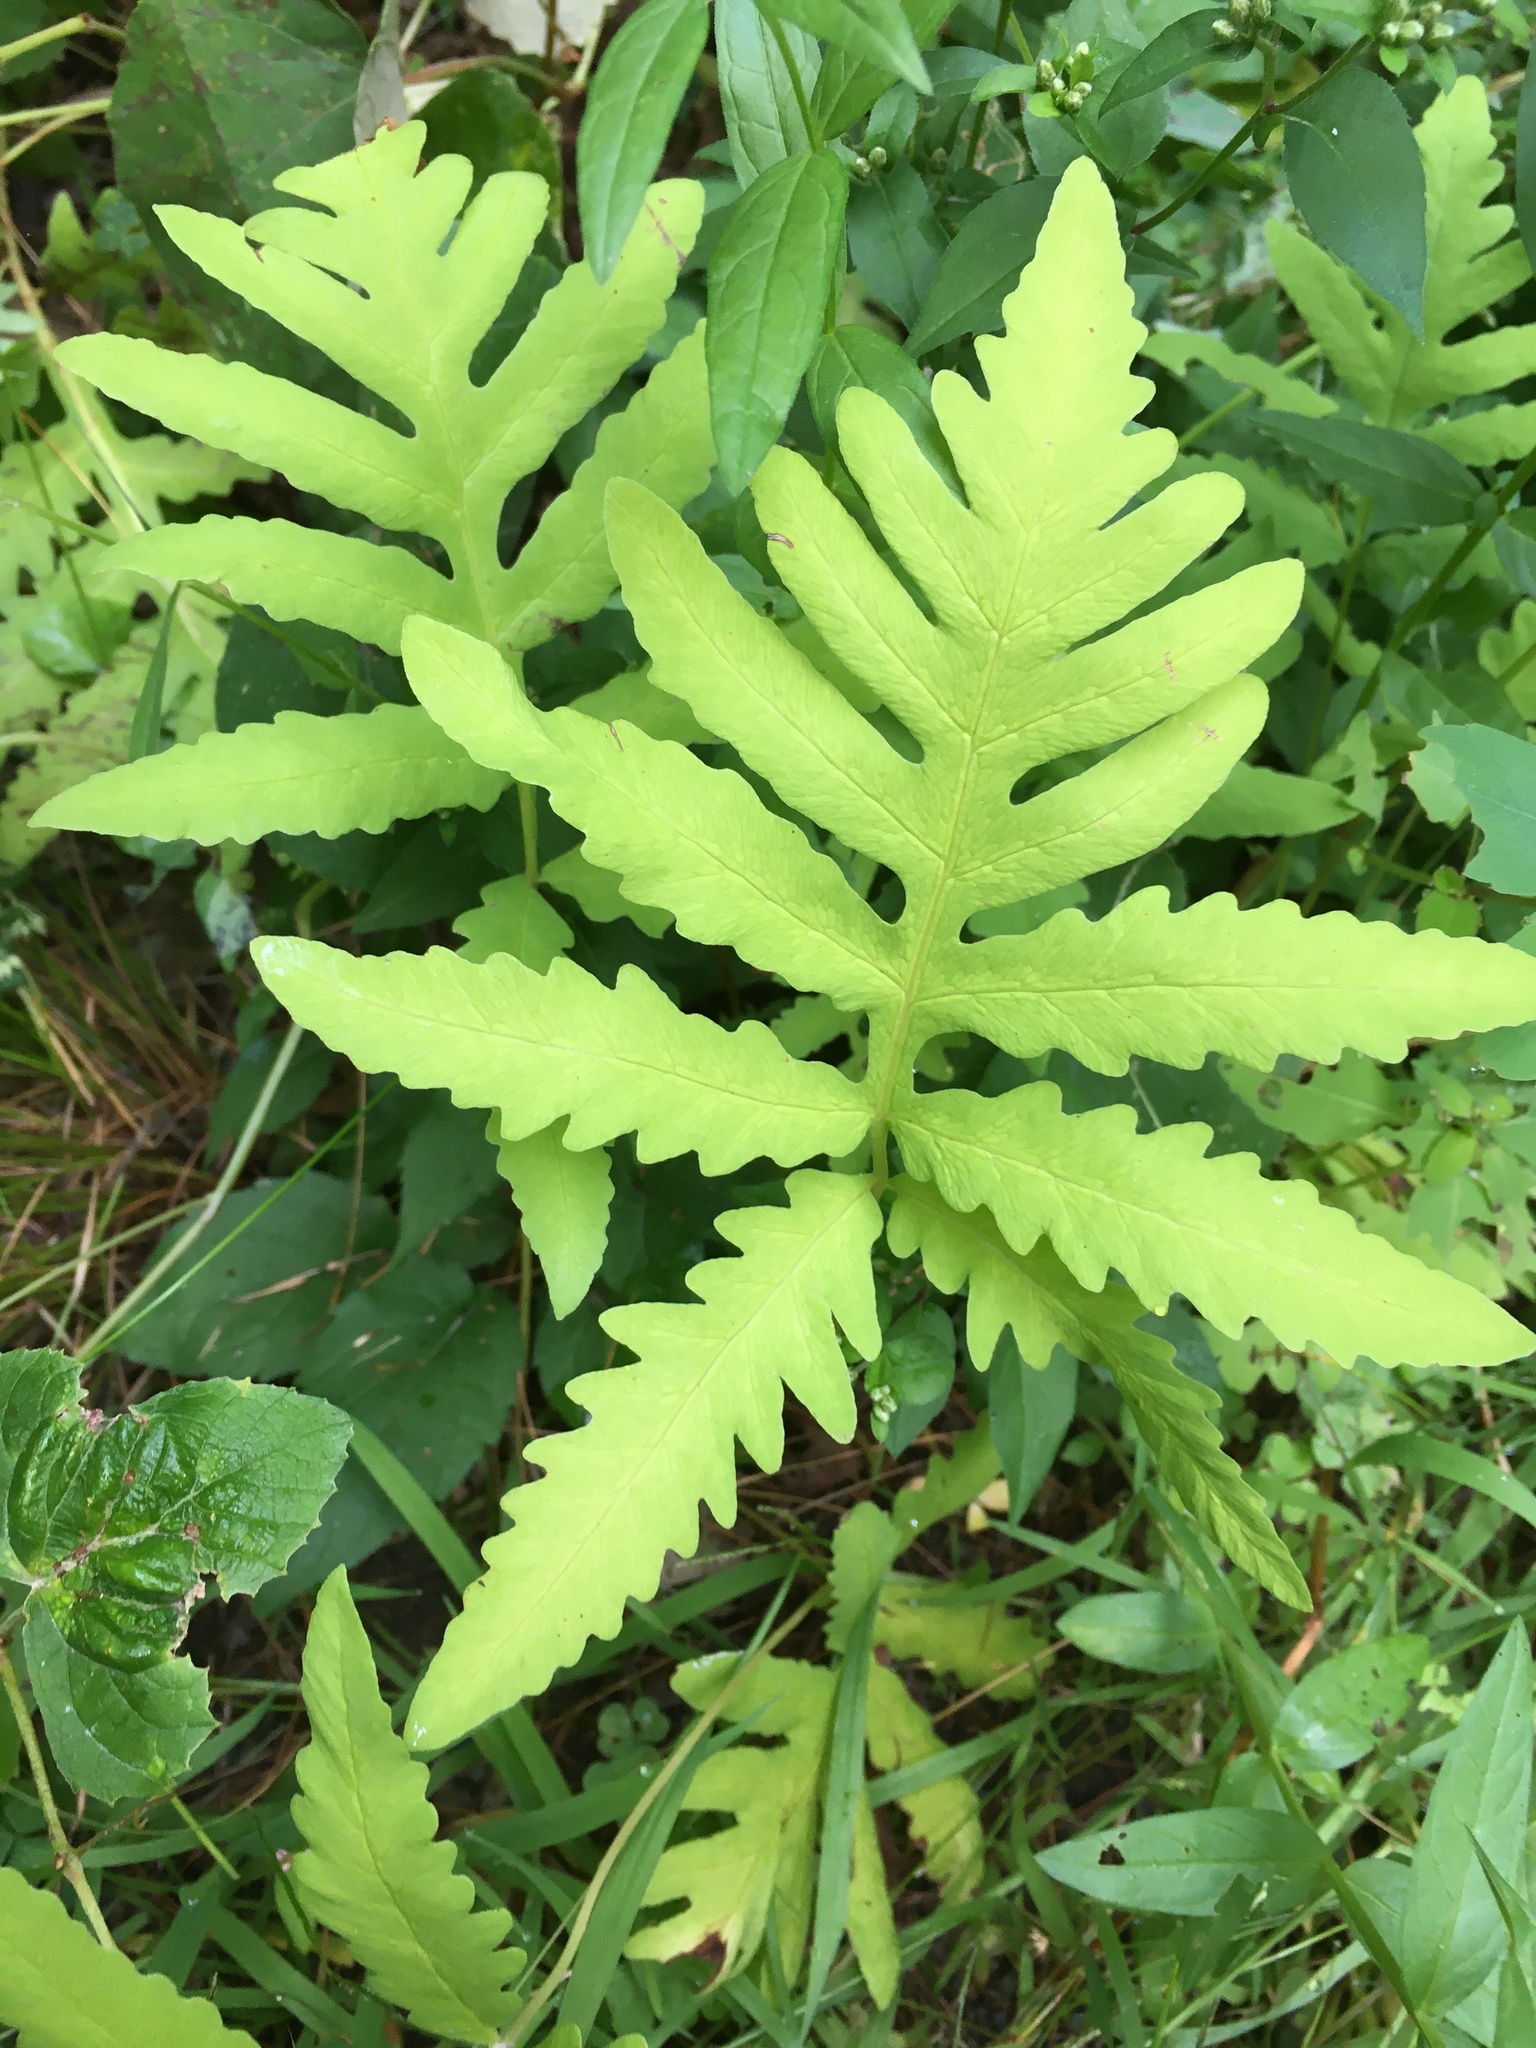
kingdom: Plantae
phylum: Tracheophyta
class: Polypodiopsida
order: Polypodiales
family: Onocleaceae
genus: Onoclea
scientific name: Onoclea sensibilis
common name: Sensitive fern
